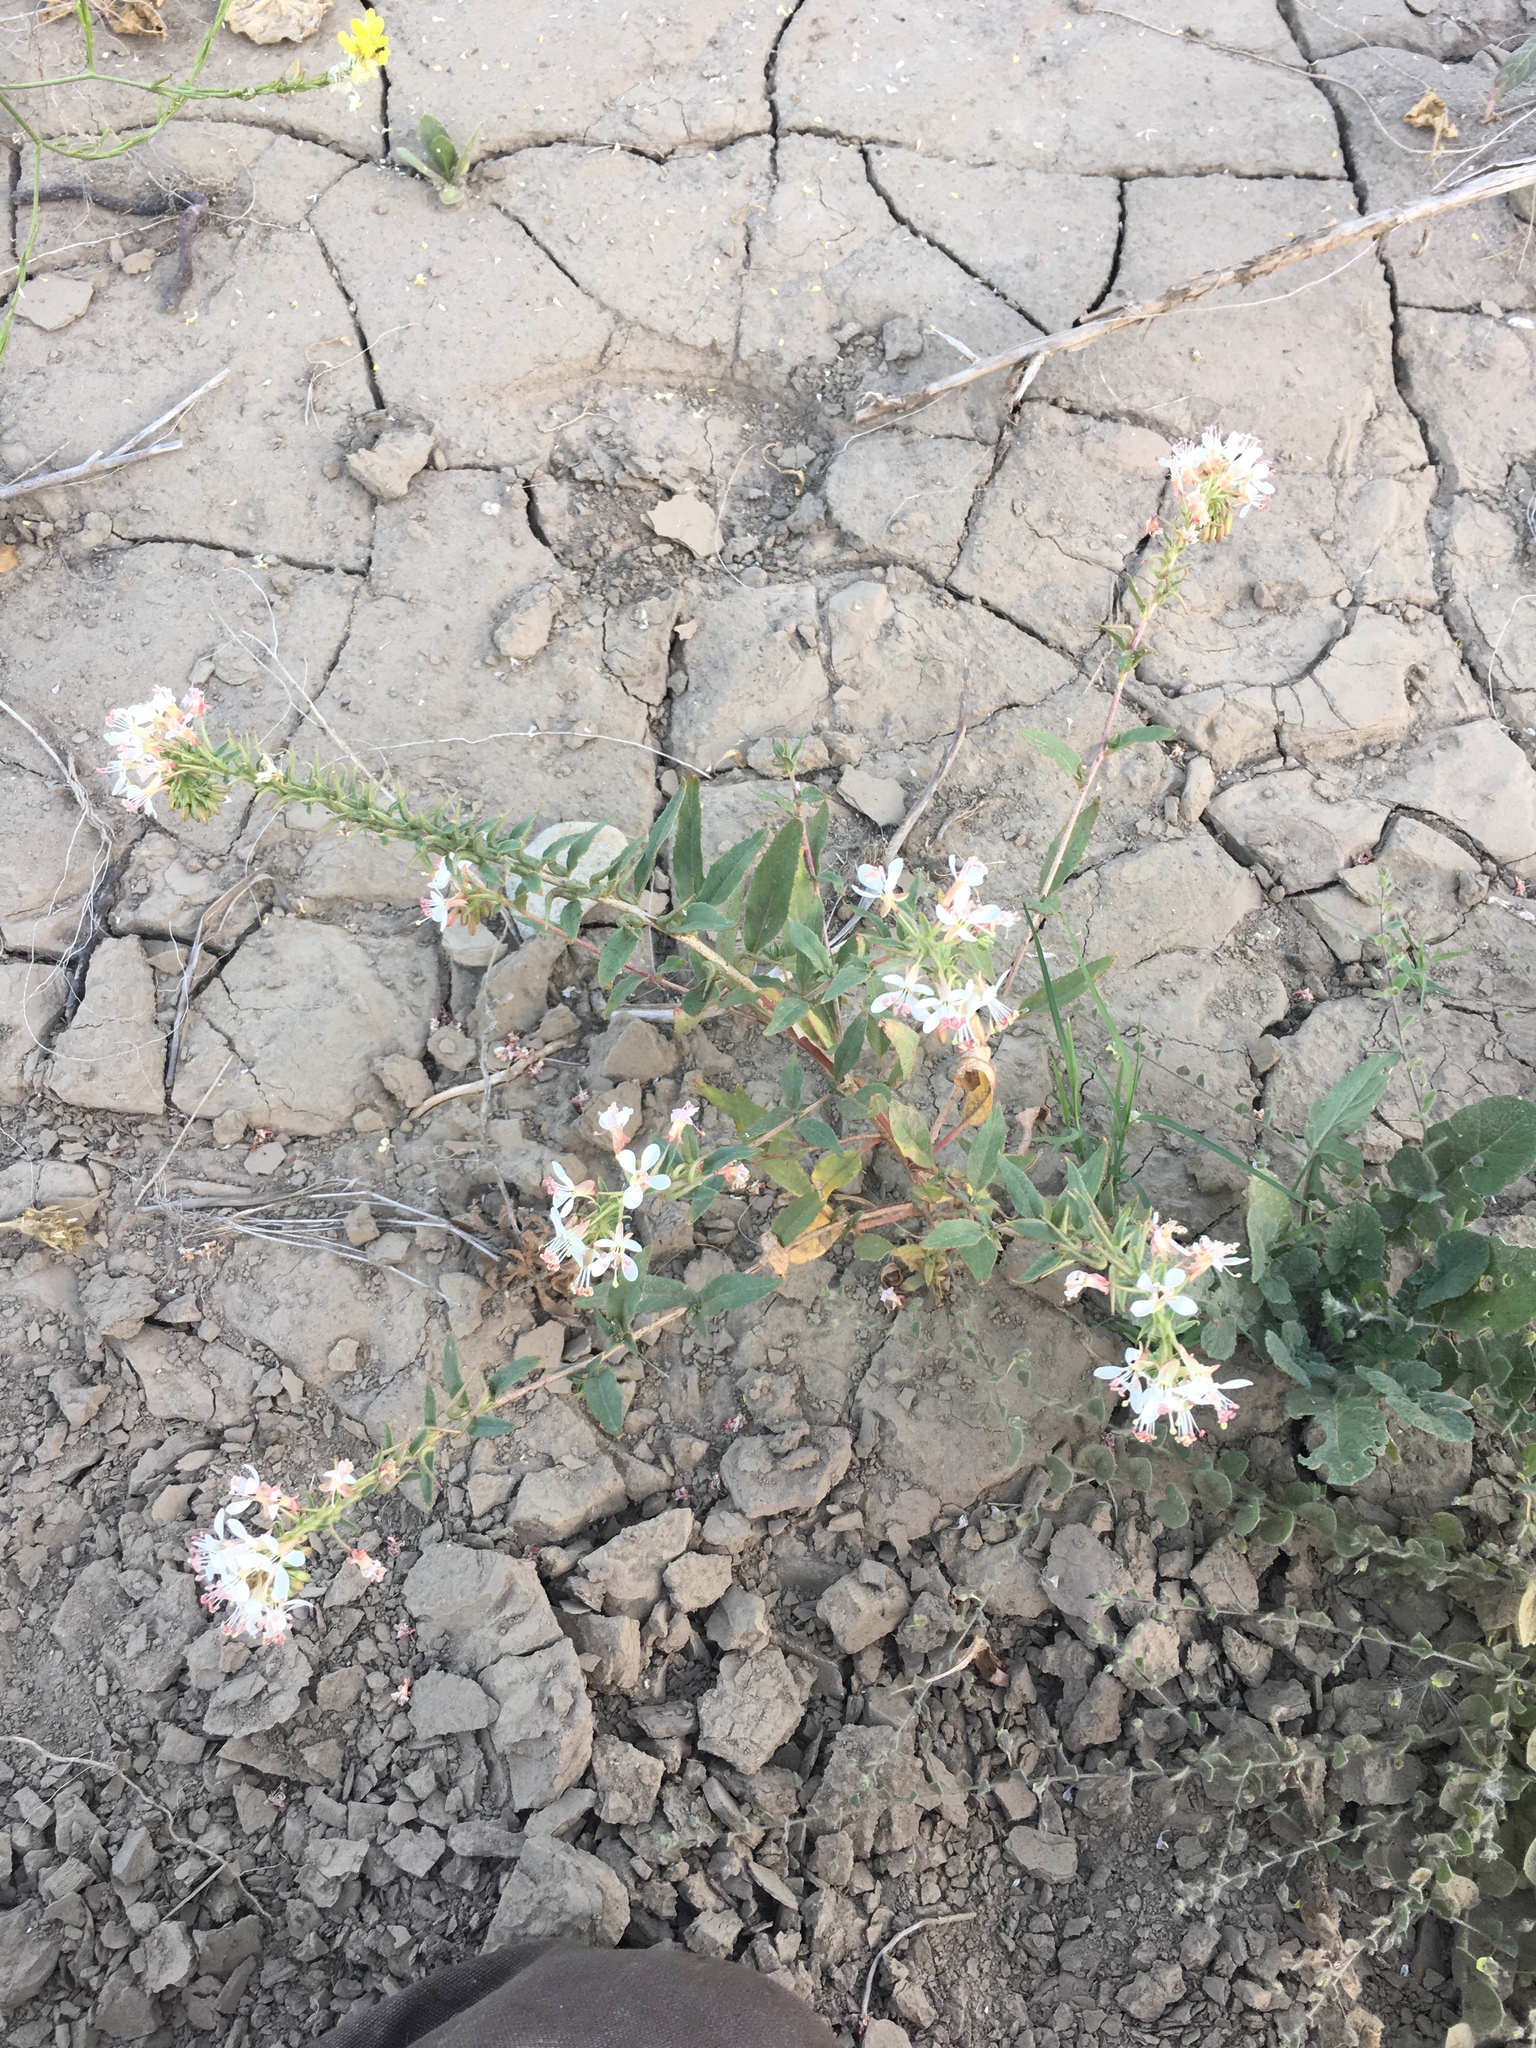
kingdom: Plantae
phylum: Tracheophyta
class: Magnoliopsida
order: Myrtales
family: Onagraceae
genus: Eremothera
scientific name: Eremothera boothii
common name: Booth's evening primrose
